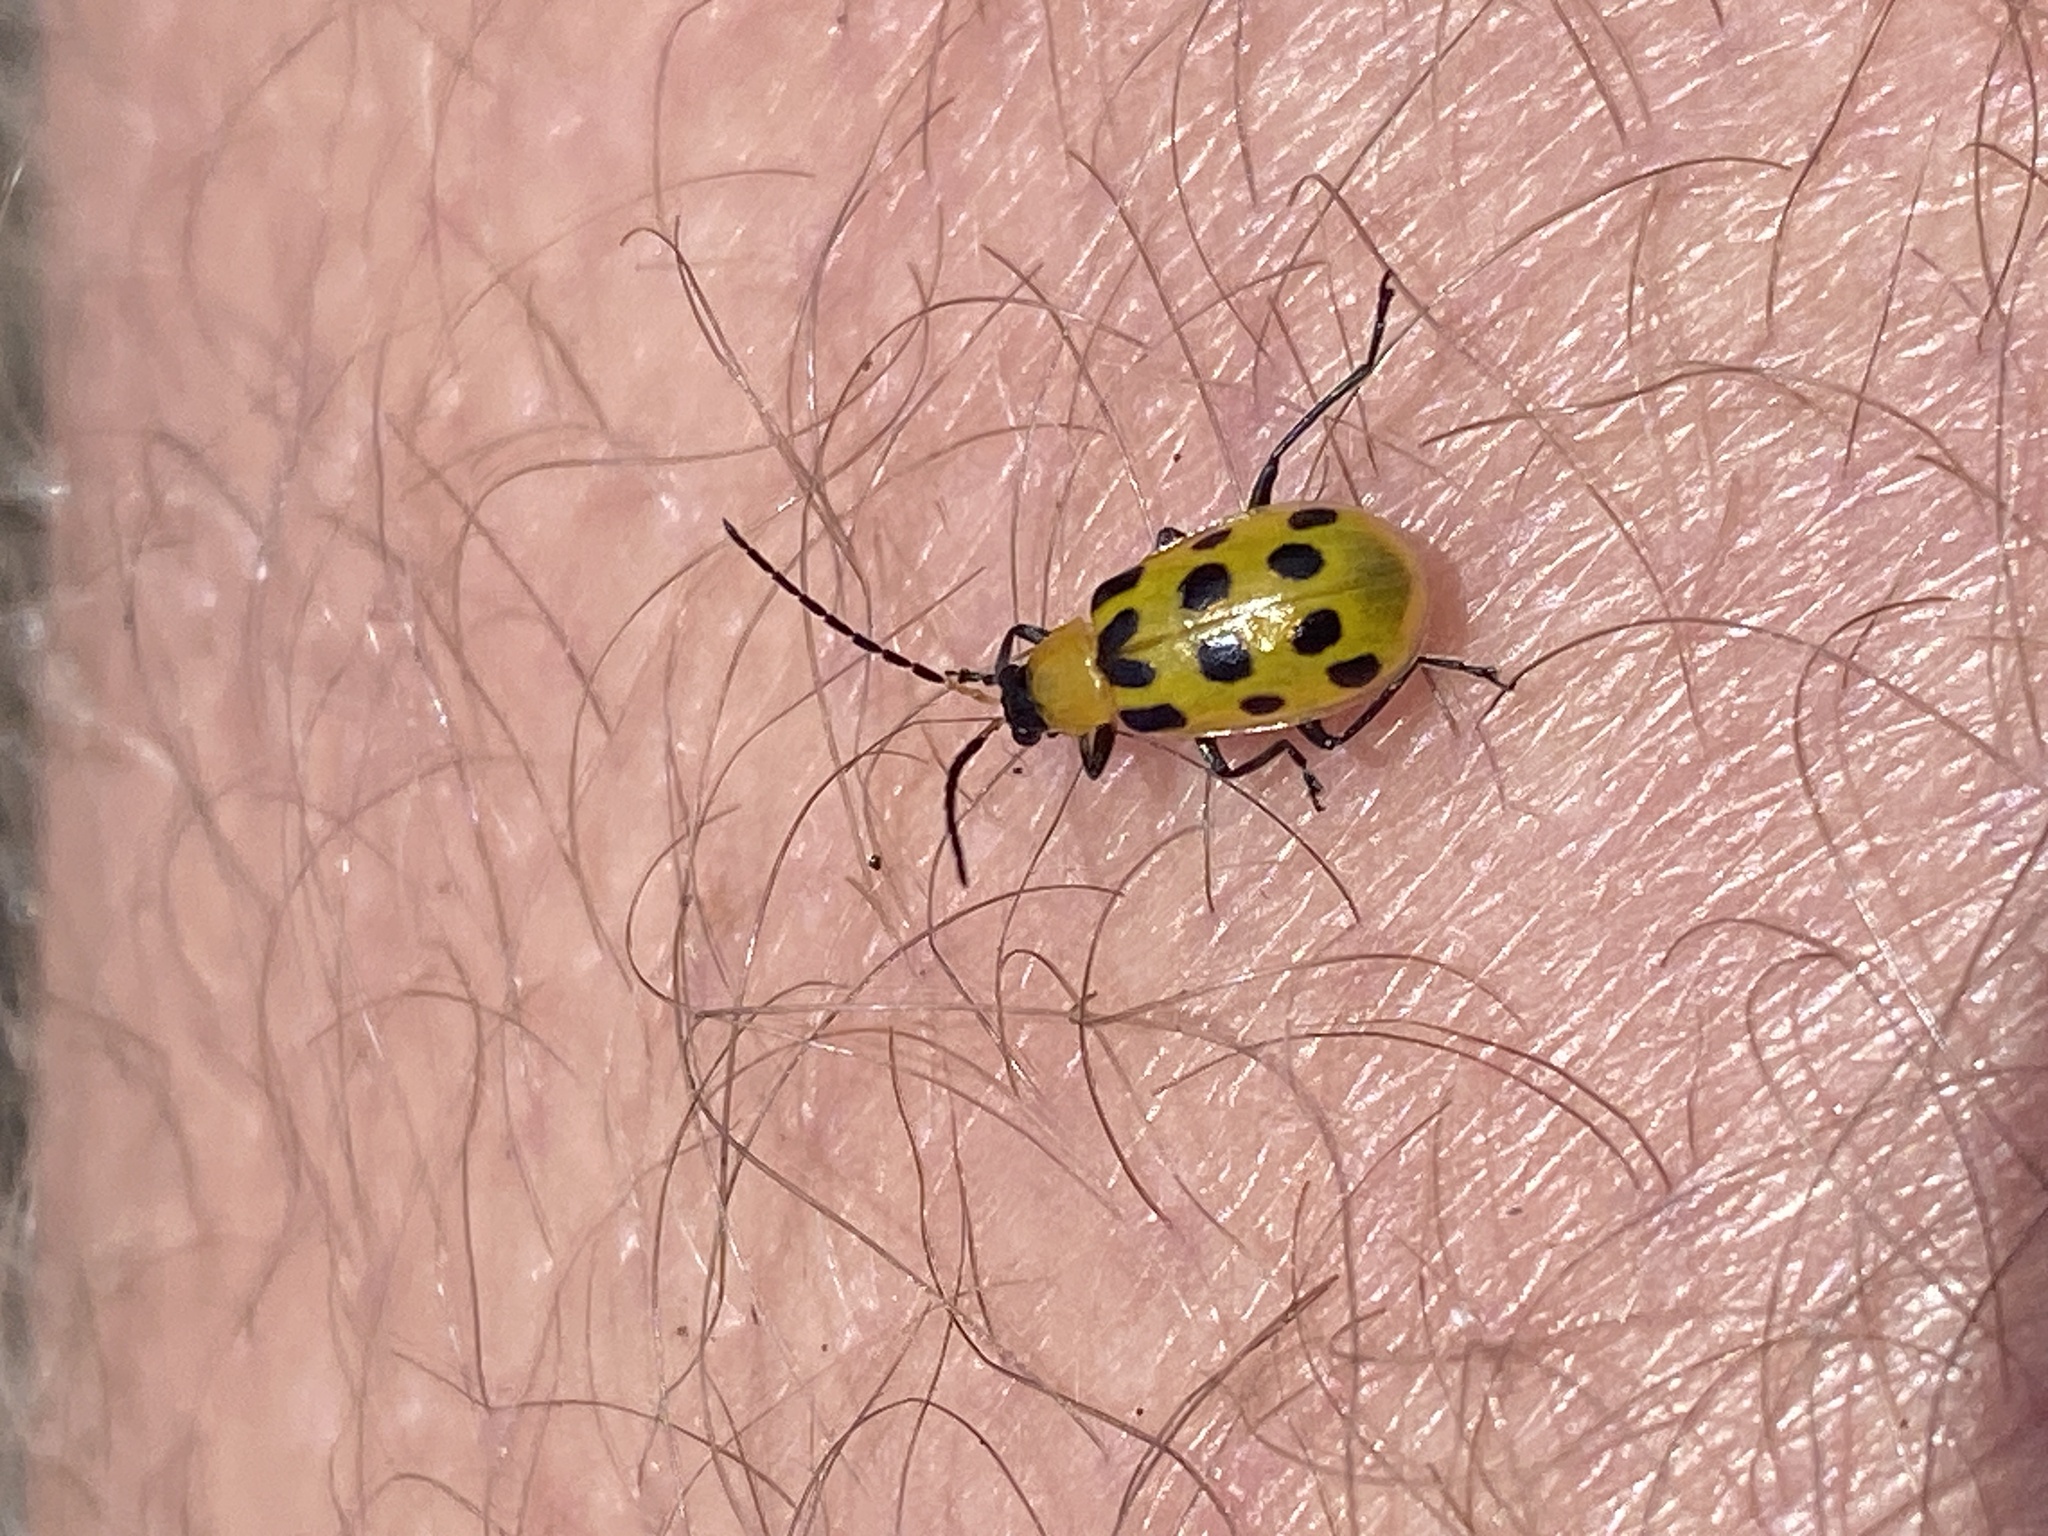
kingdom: Animalia
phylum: Arthropoda
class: Insecta
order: Coleoptera
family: Chrysomelidae
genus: Diabrotica
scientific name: Diabrotica undecimpunctata
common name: Spotted cucumber beetle
